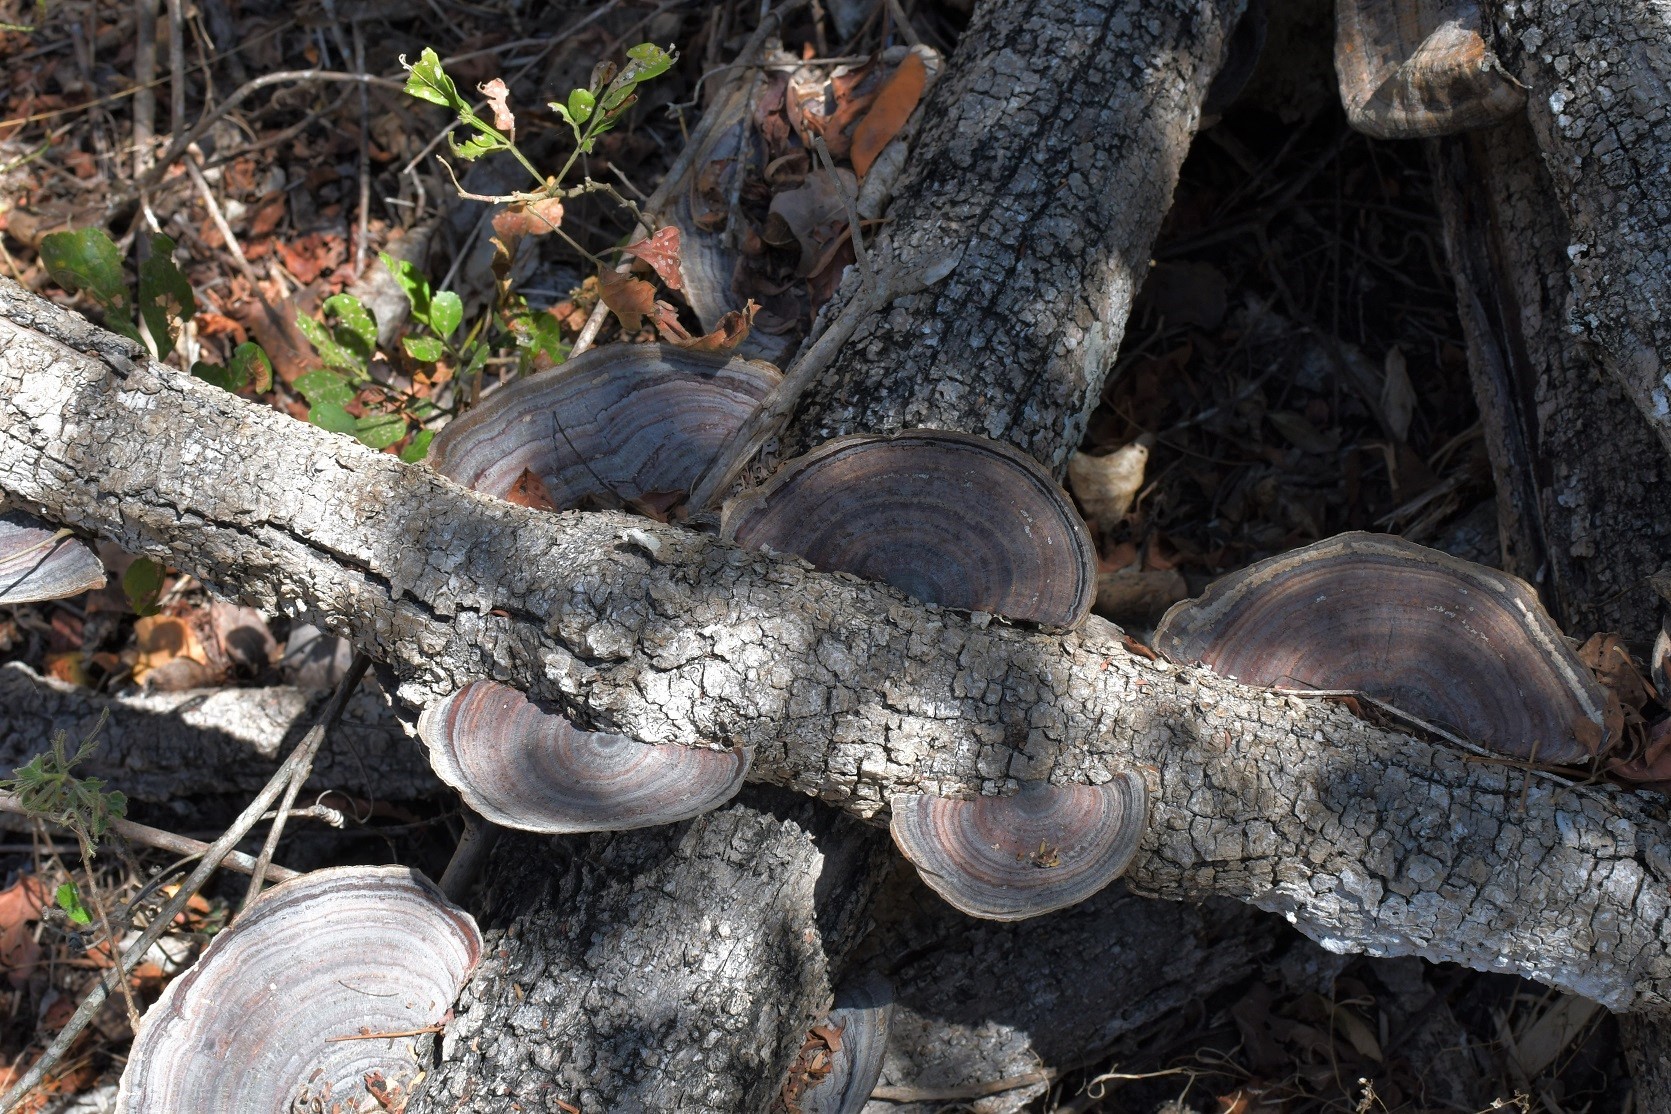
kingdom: Fungi
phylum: Basidiomycota
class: Agaricomycetes
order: Polyporales
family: Polyporaceae
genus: Trametes
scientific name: Trametes variegata
